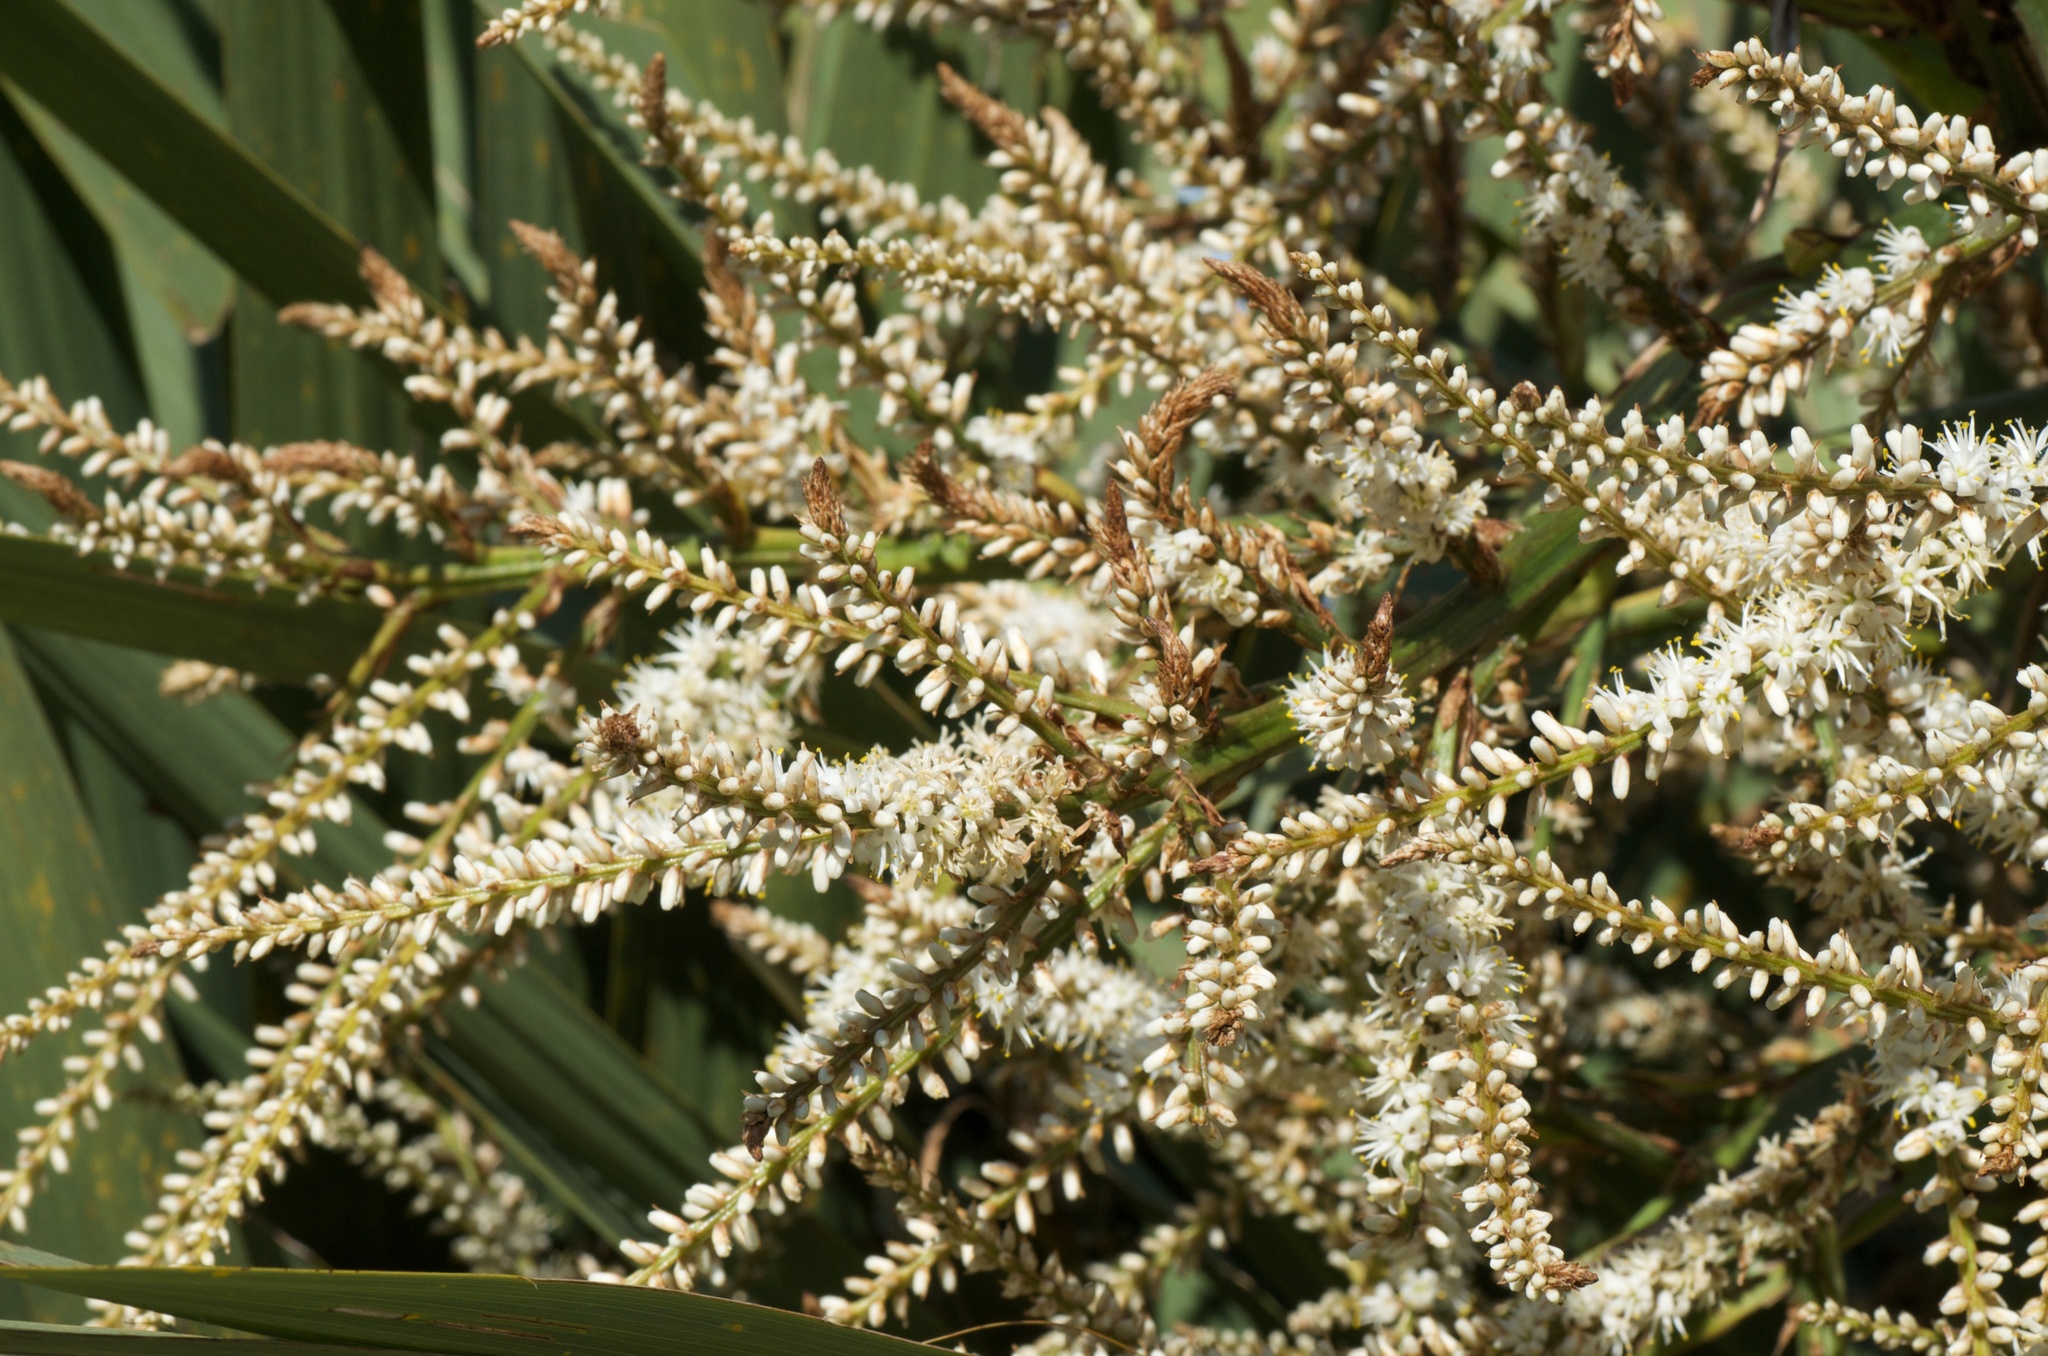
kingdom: Plantae
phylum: Tracheophyta
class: Liliopsida
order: Asparagales
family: Asparagaceae
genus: Cordyline
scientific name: Cordyline australis
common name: Cabbage-palm
